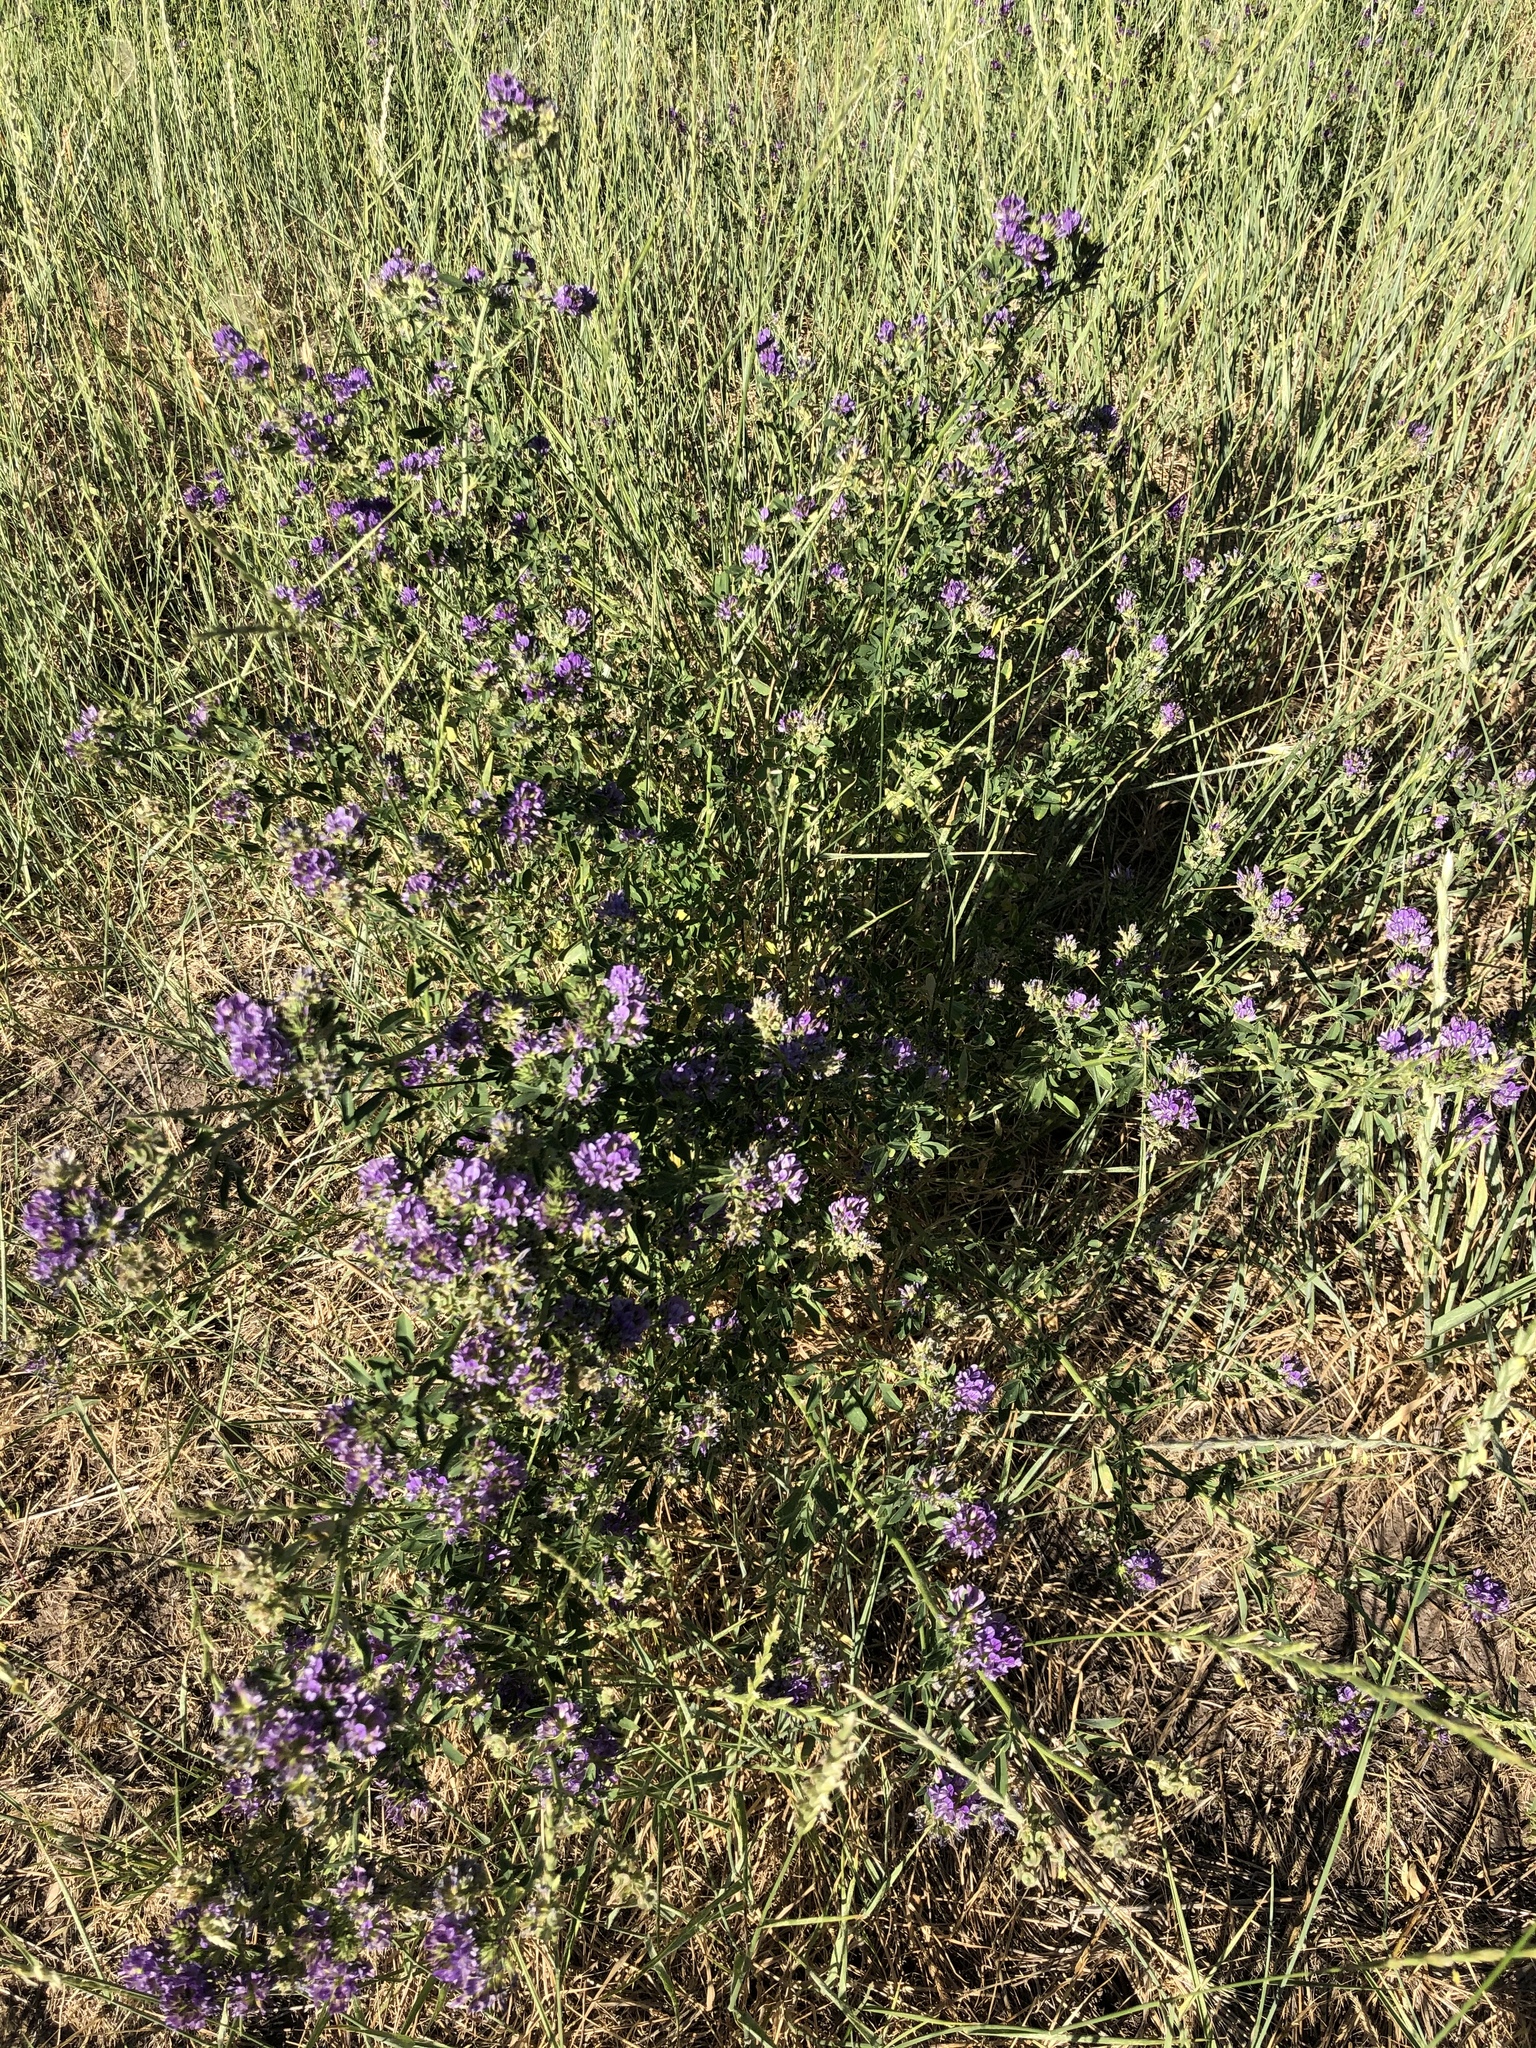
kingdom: Plantae
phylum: Tracheophyta
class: Magnoliopsida
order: Fabales
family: Fabaceae
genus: Medicago
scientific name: Medicago sativa
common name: Alfalfa
